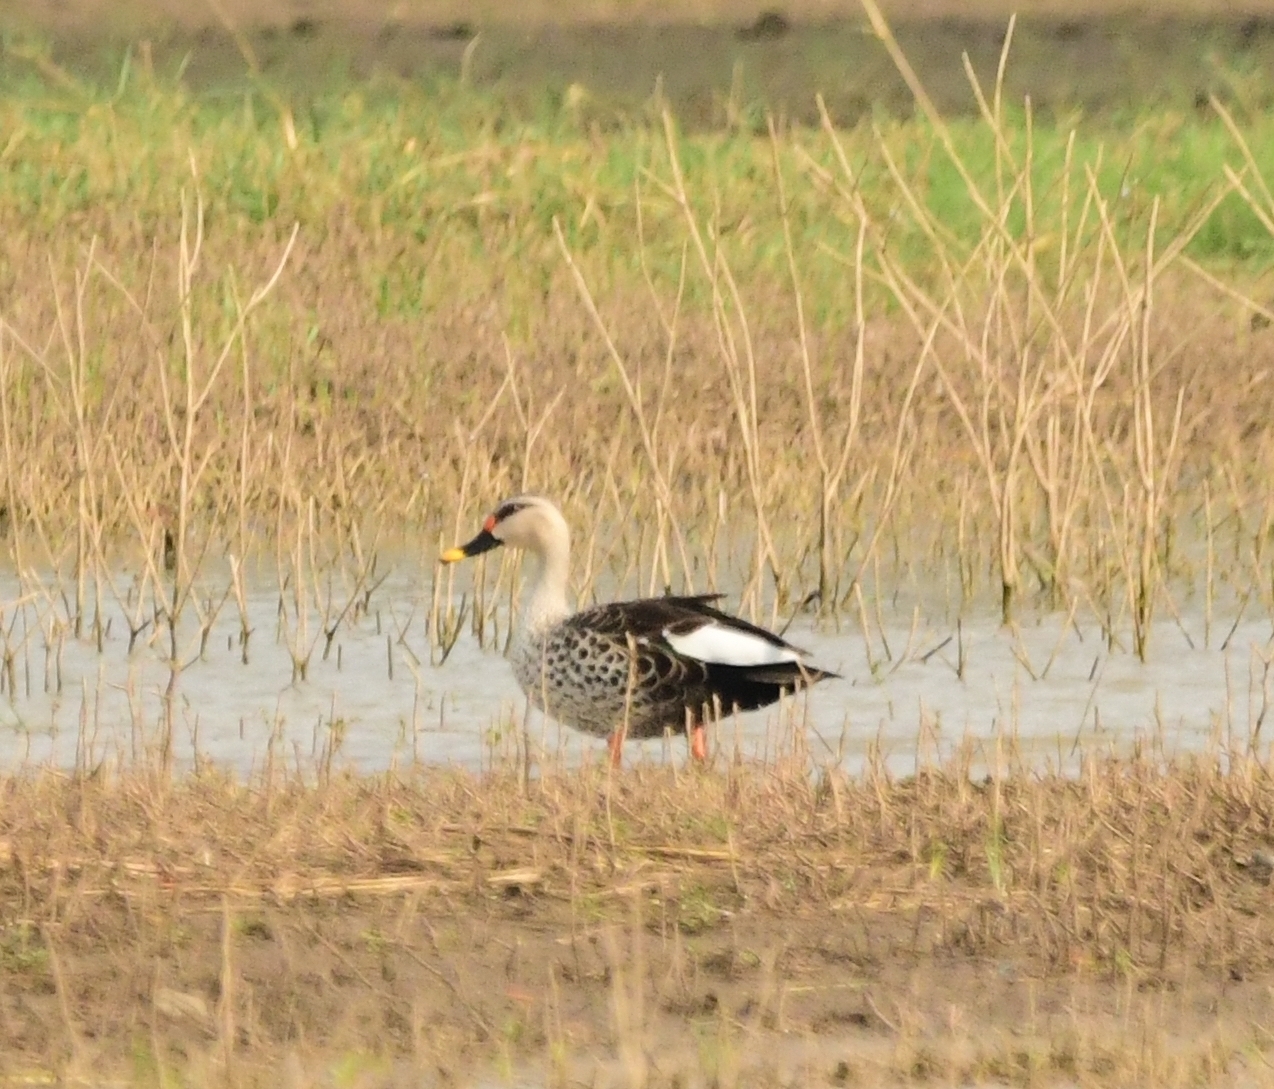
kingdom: Animalia
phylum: Chordata
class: Aves
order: Anseriformes
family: Anatidae
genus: Anas
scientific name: Anas poecilorhyncha
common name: Indian spot-billed duck
